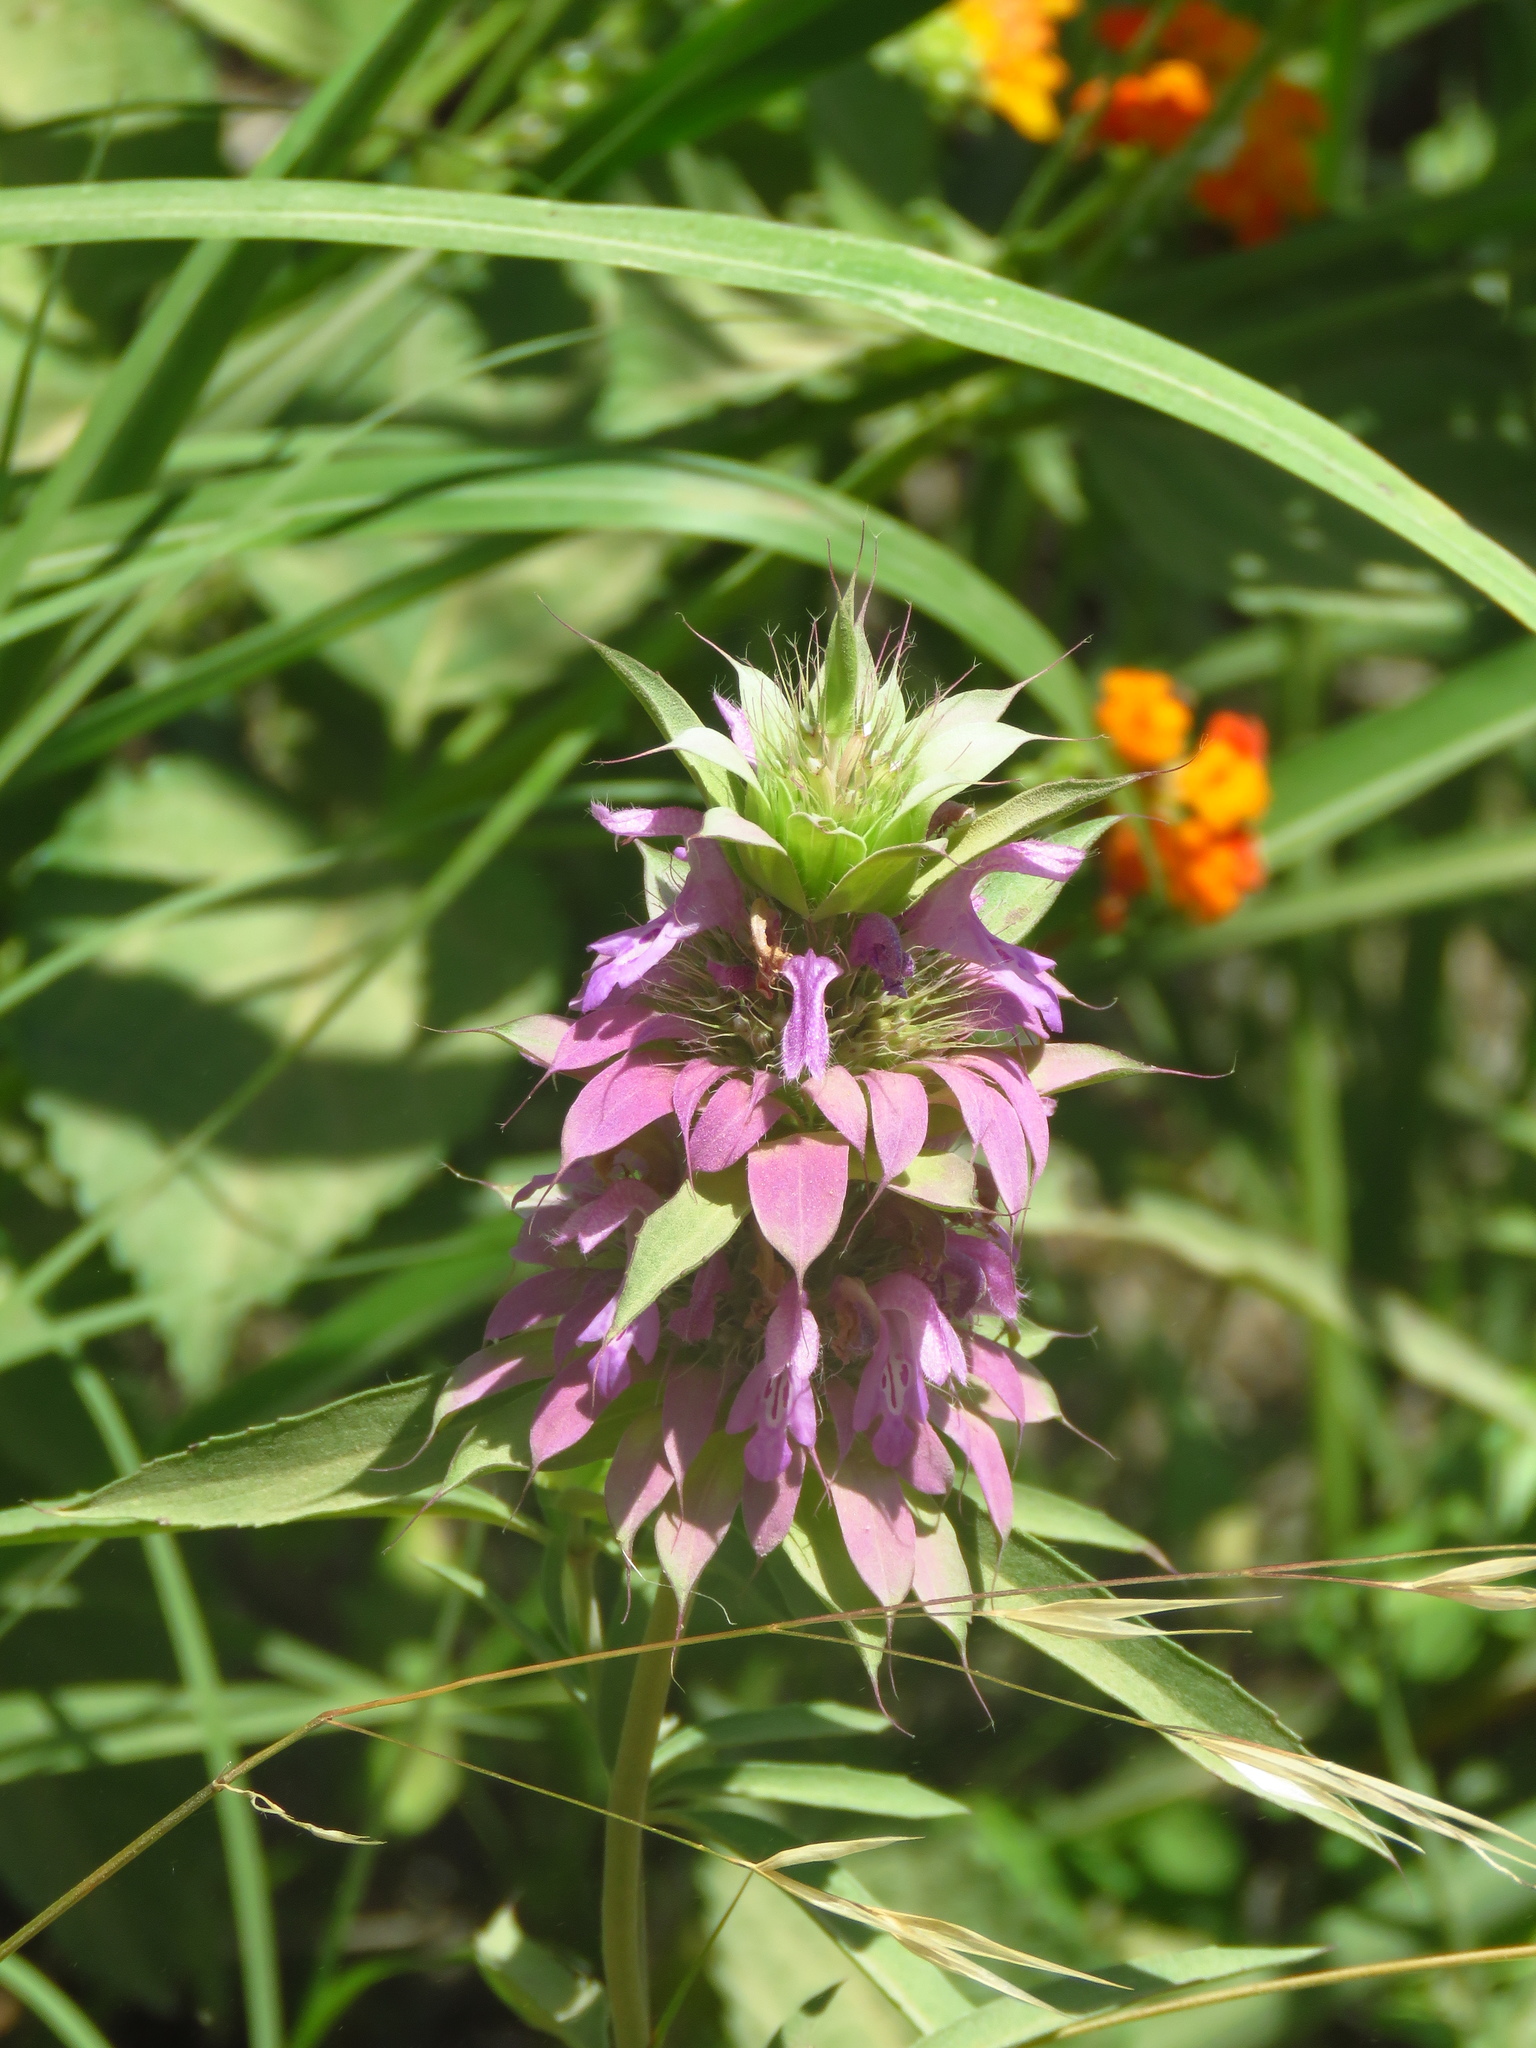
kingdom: Plantae
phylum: Tracheophyta
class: Magnoliopsida
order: Lamiales
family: Lamiaceae
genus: Monarda
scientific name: Monarda citriodora
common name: Lemon beebalm
